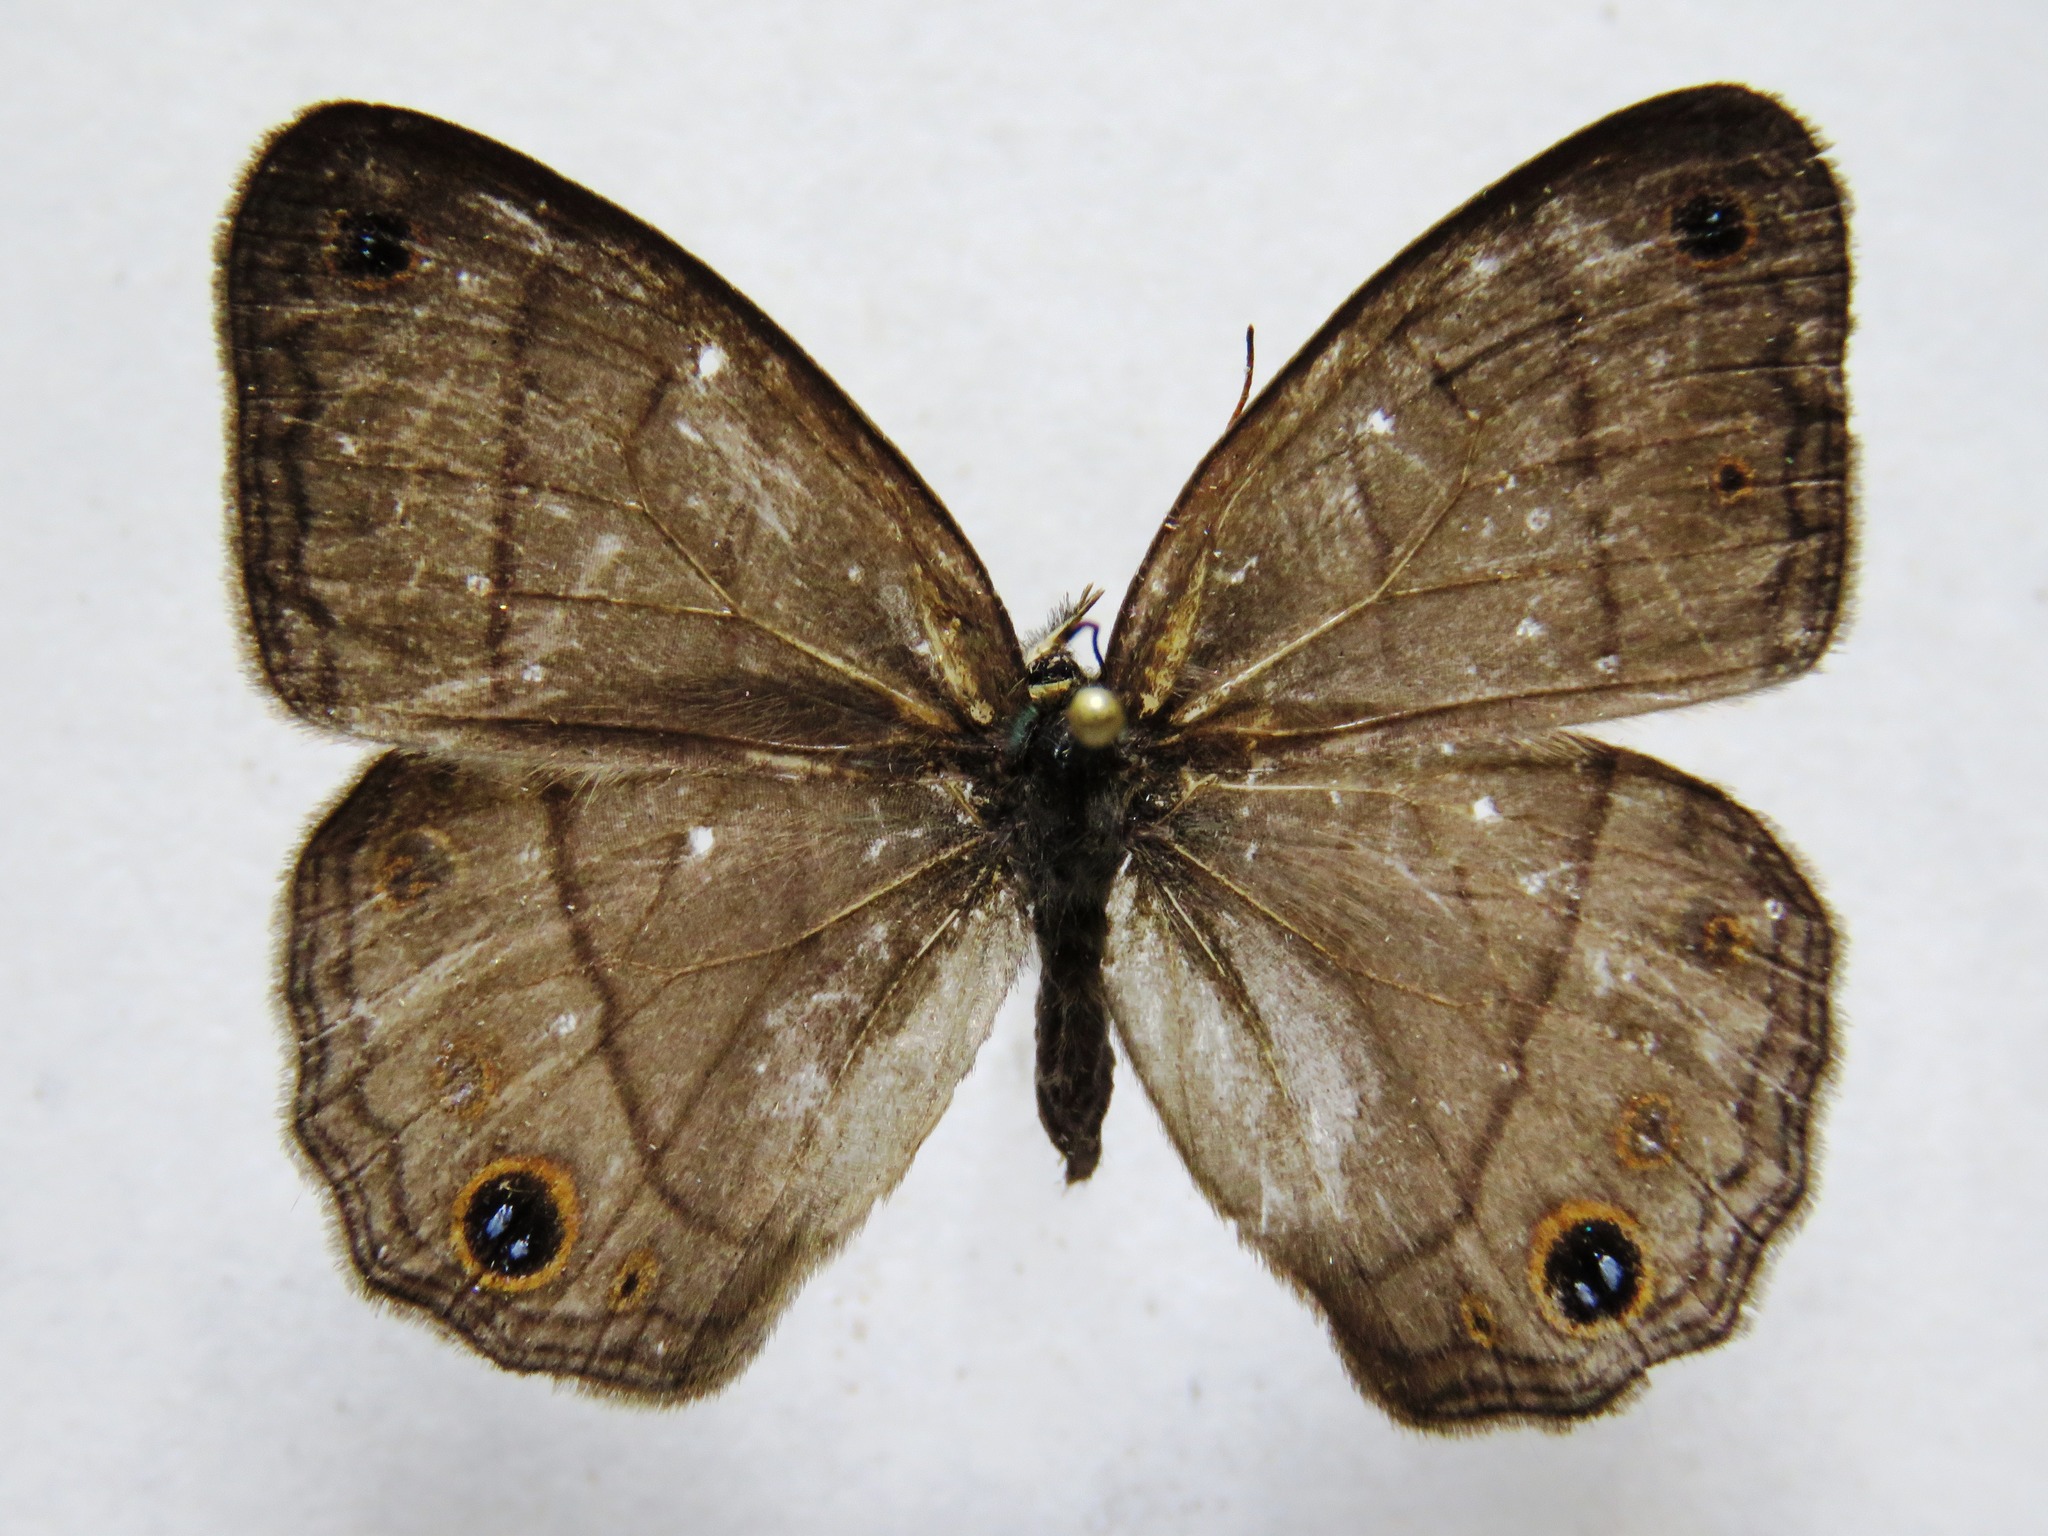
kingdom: Animalia
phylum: Arthropoda
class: Insecta
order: Lepidoptera
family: Nymphalidae
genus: Euptychia
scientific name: Euptychia Cissia pompilia
